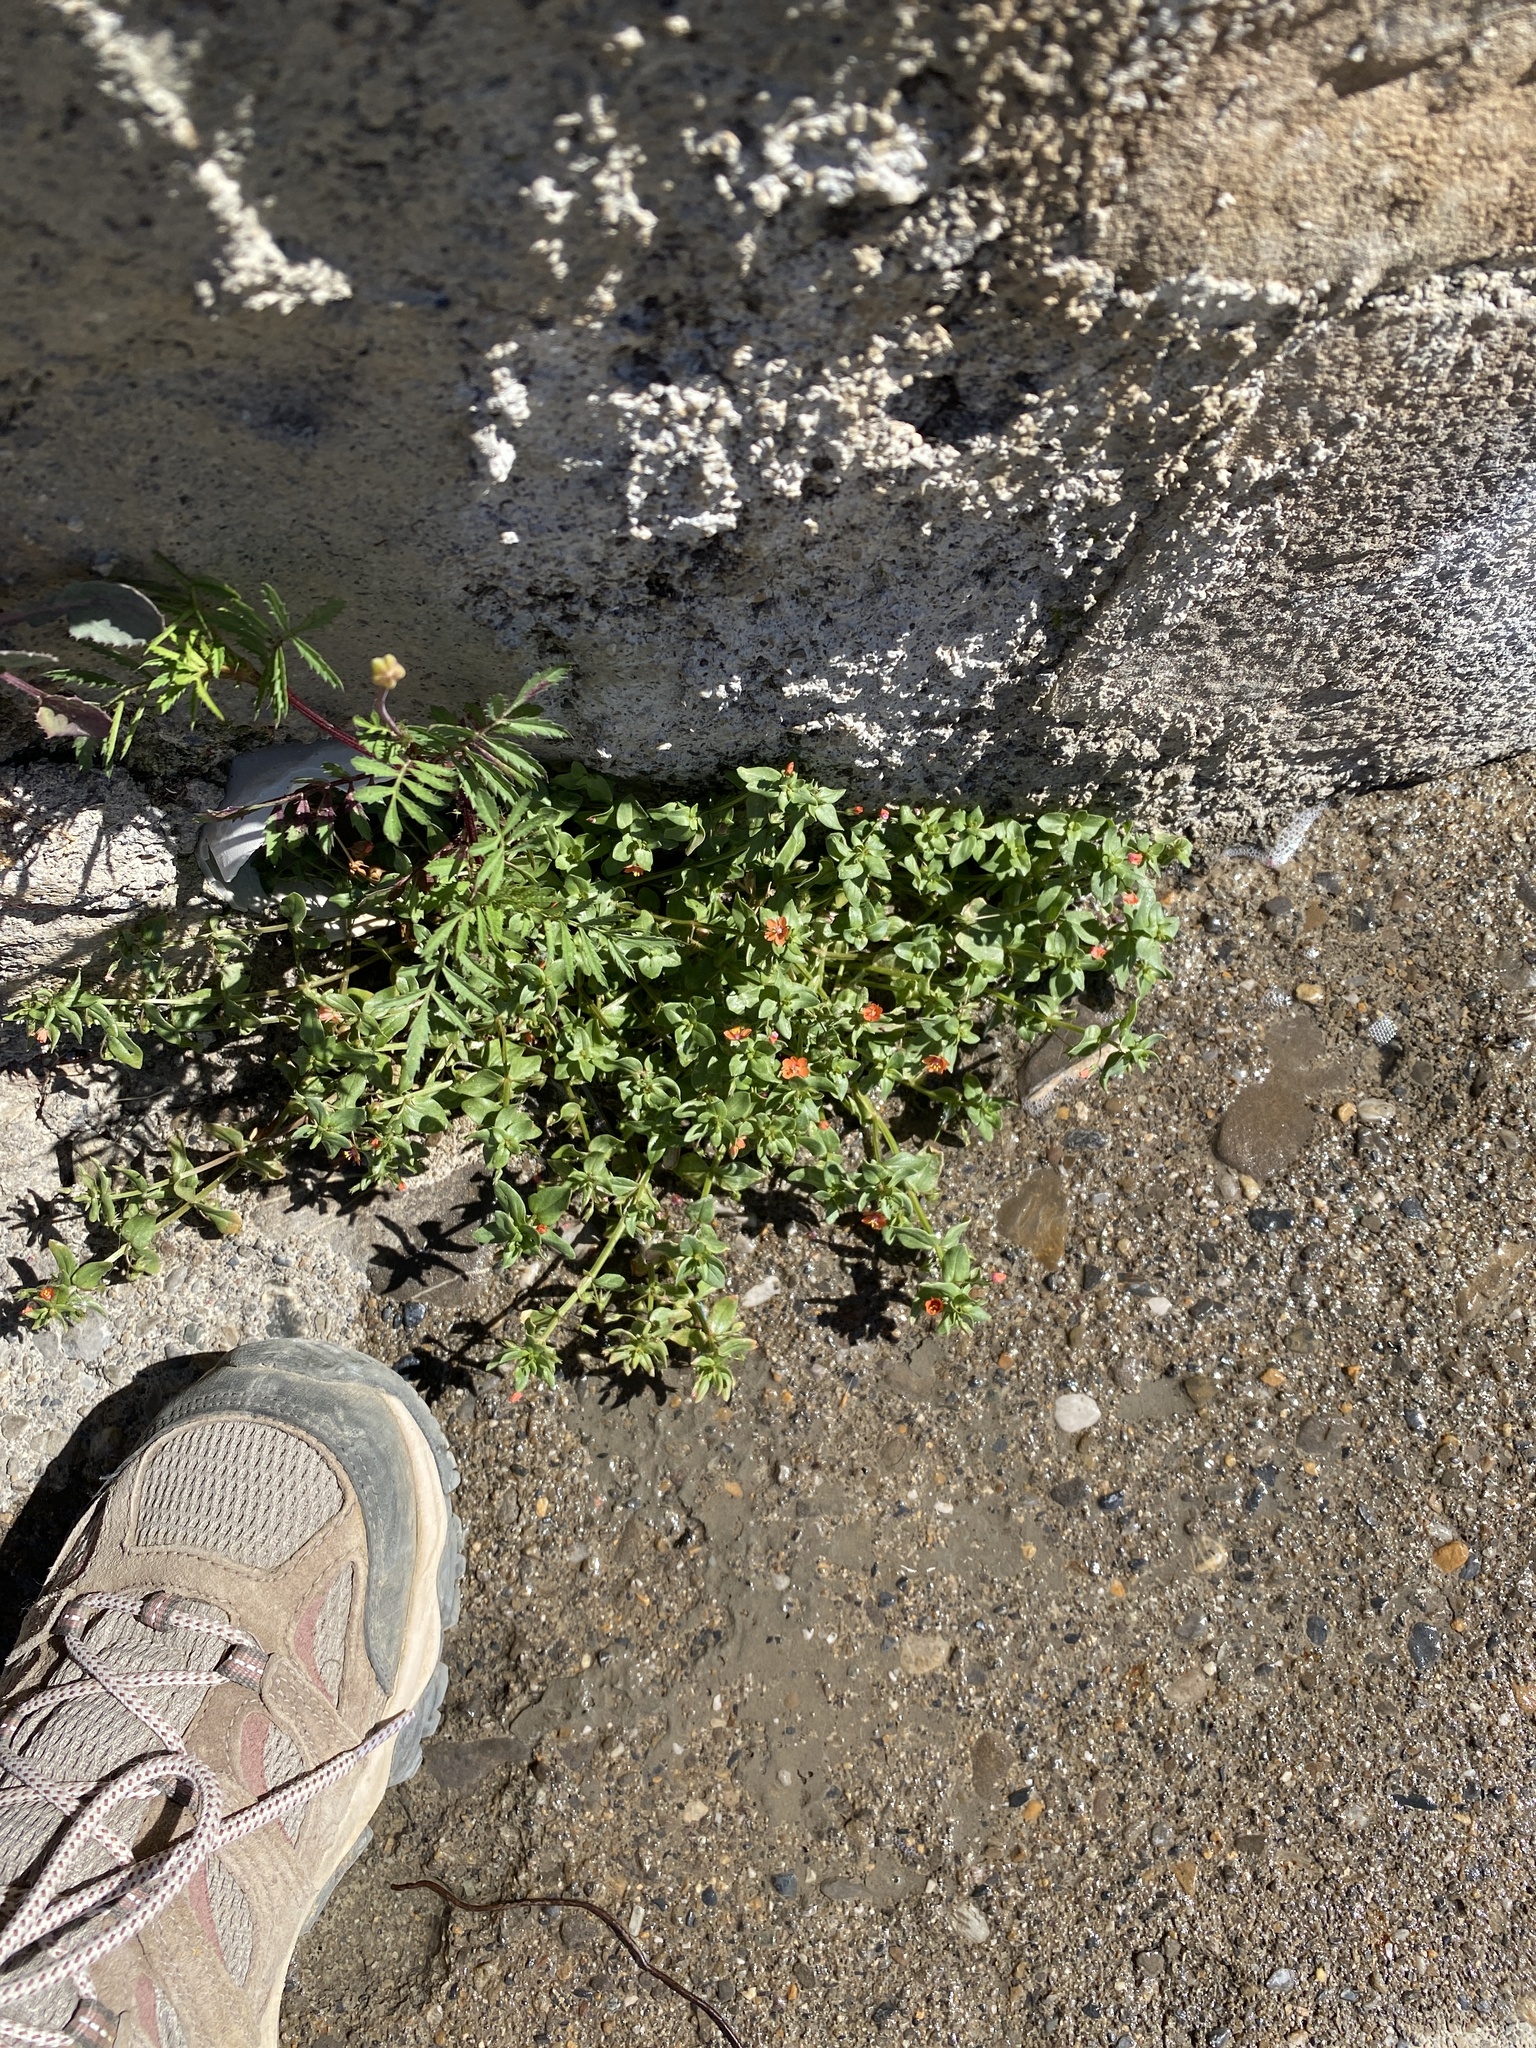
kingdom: Plantae
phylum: Tracheophyta
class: Magnoliopsida
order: Ericales
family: Primulaceae
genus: Lysimachia
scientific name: Lysimachia arvensis
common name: Scarlet pimpernel
